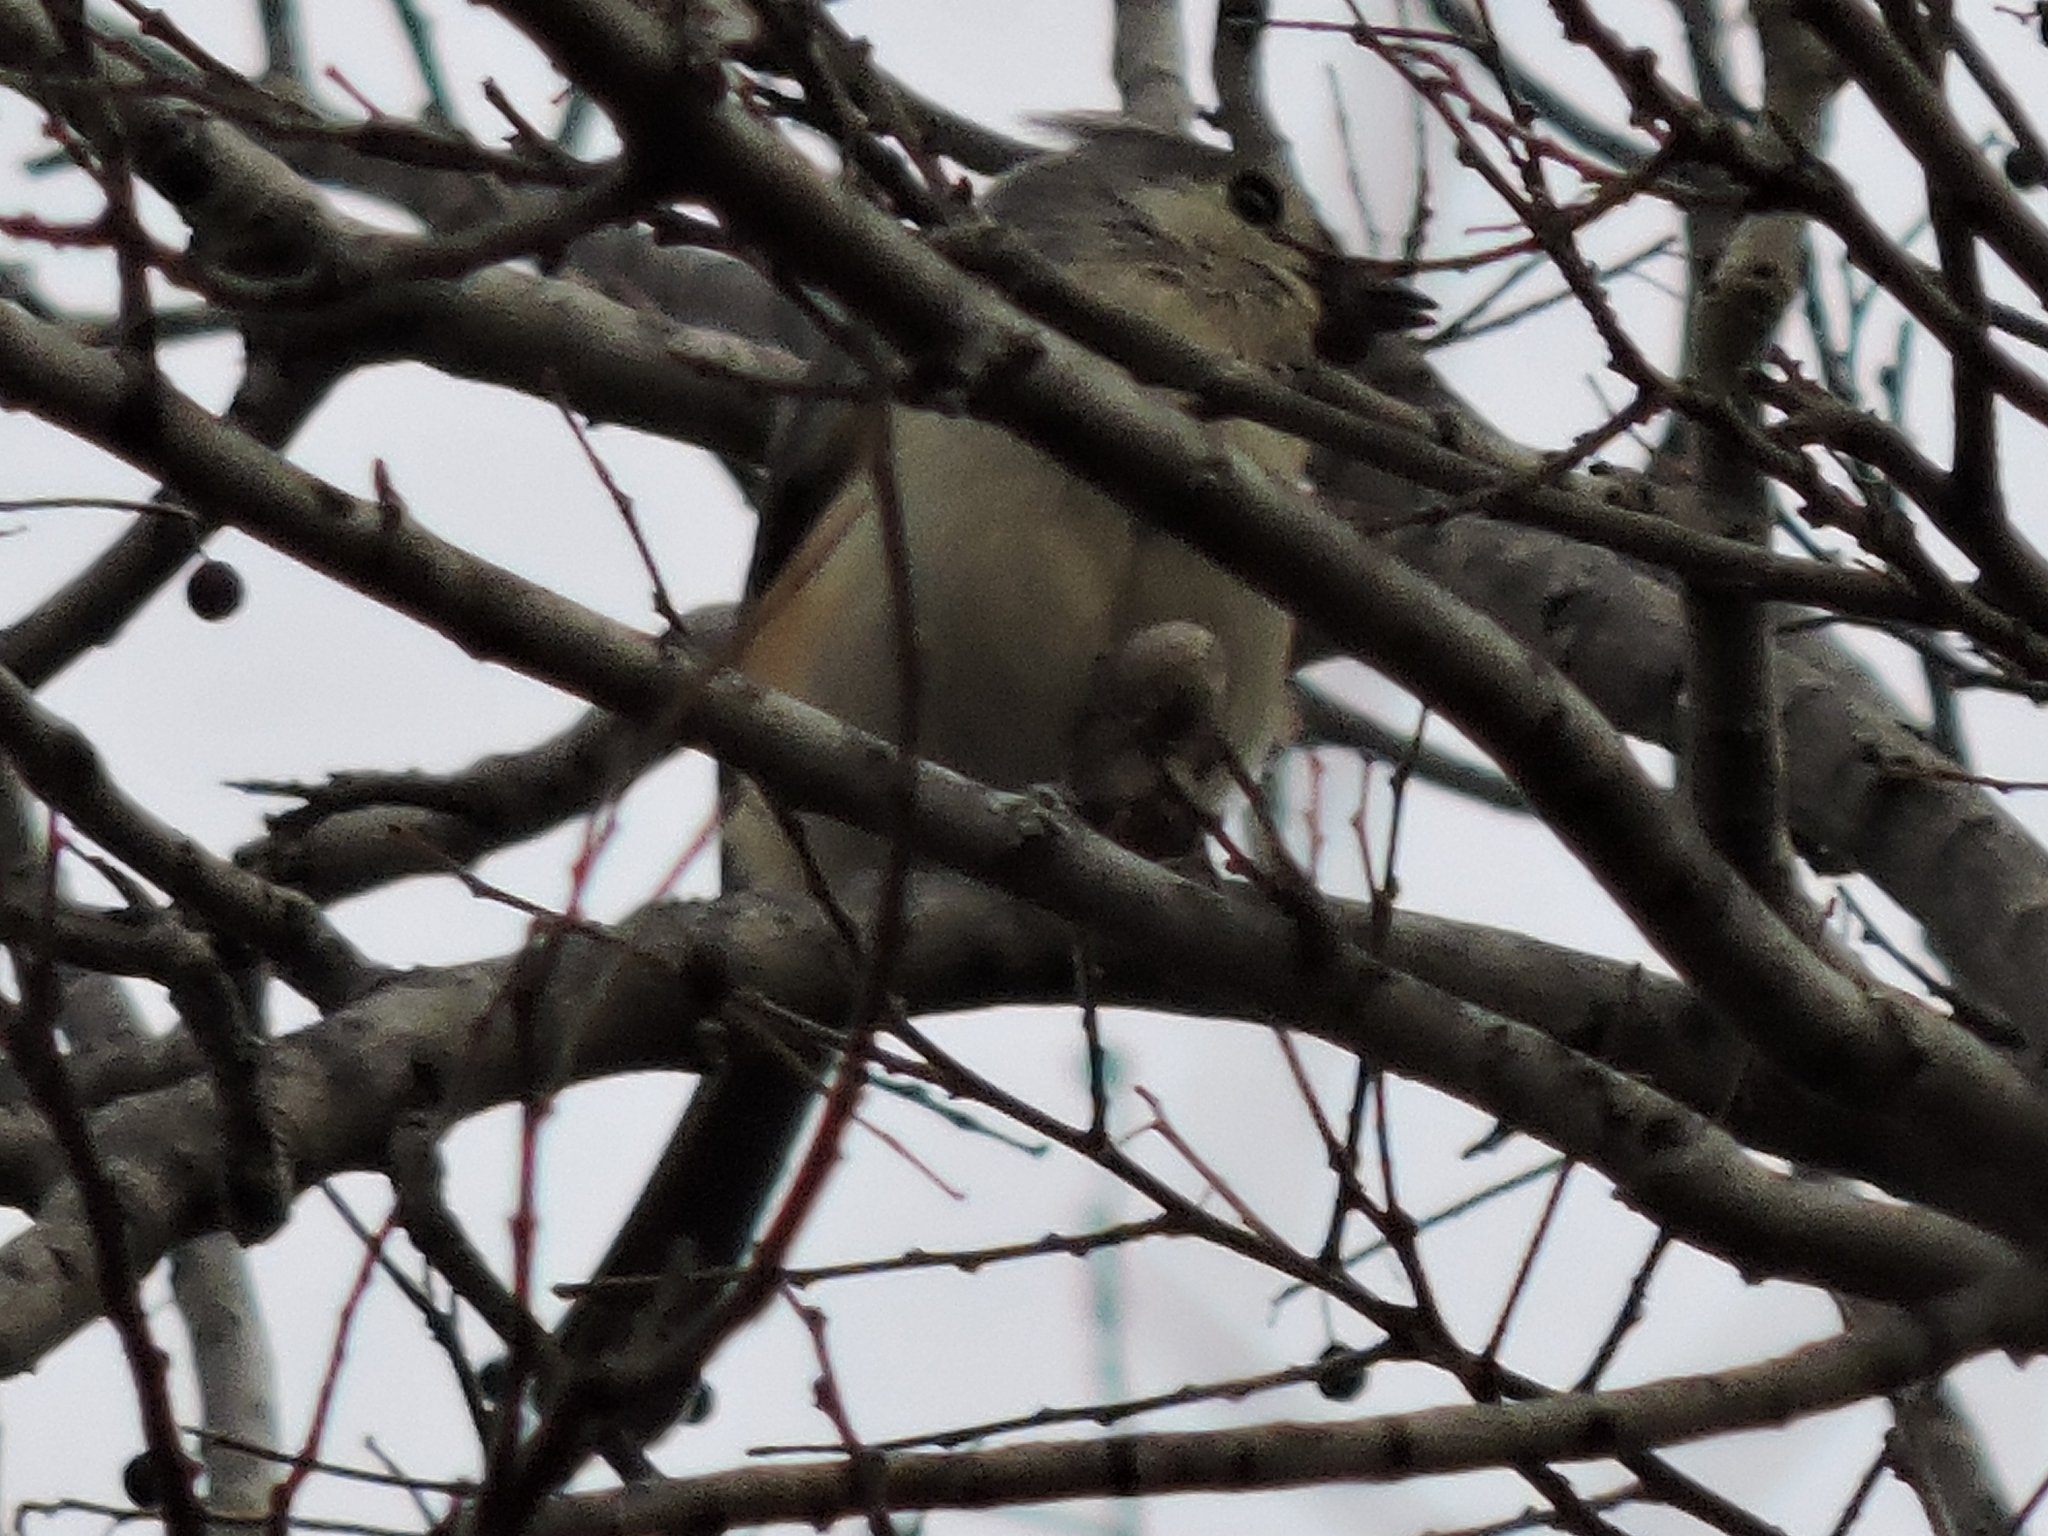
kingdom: Animalia
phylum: Chordata
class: Aves
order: Passeriformes
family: Paridae
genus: Baeolophus
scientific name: Baeolophus bicolor
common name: Tufted titmouse
